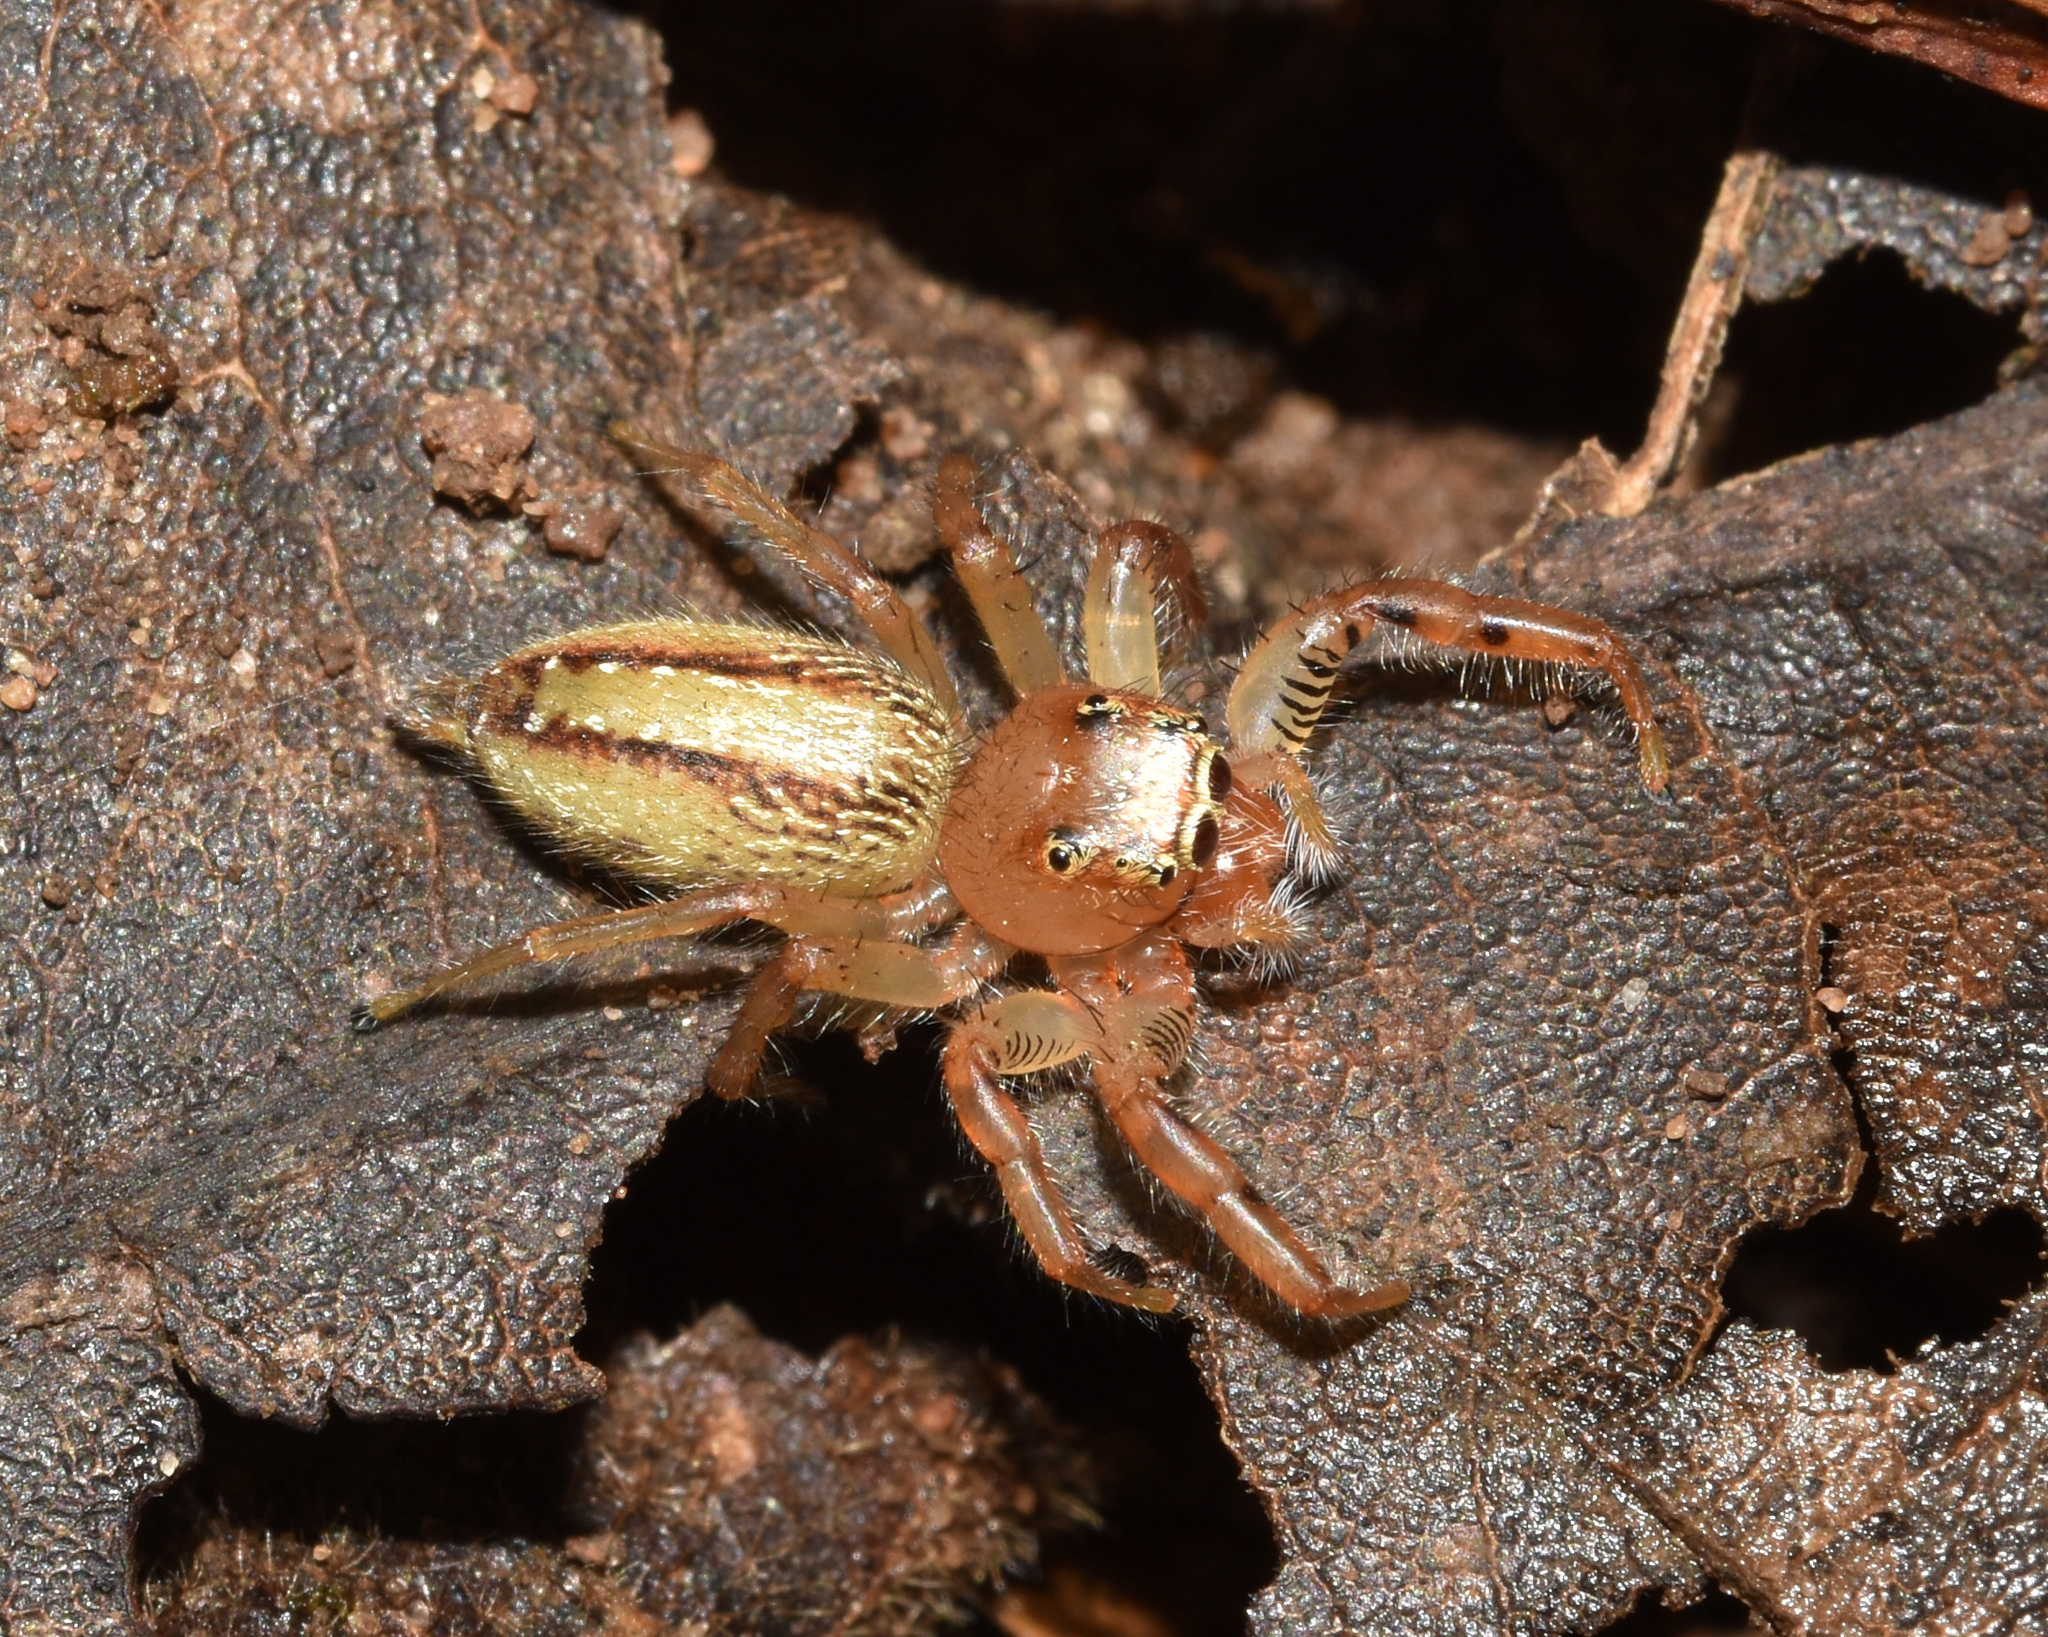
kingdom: Animalia
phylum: Arthropoda
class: Arachnida
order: Araneae
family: Salticidae
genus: Thyene
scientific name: Thyene ogdeni
